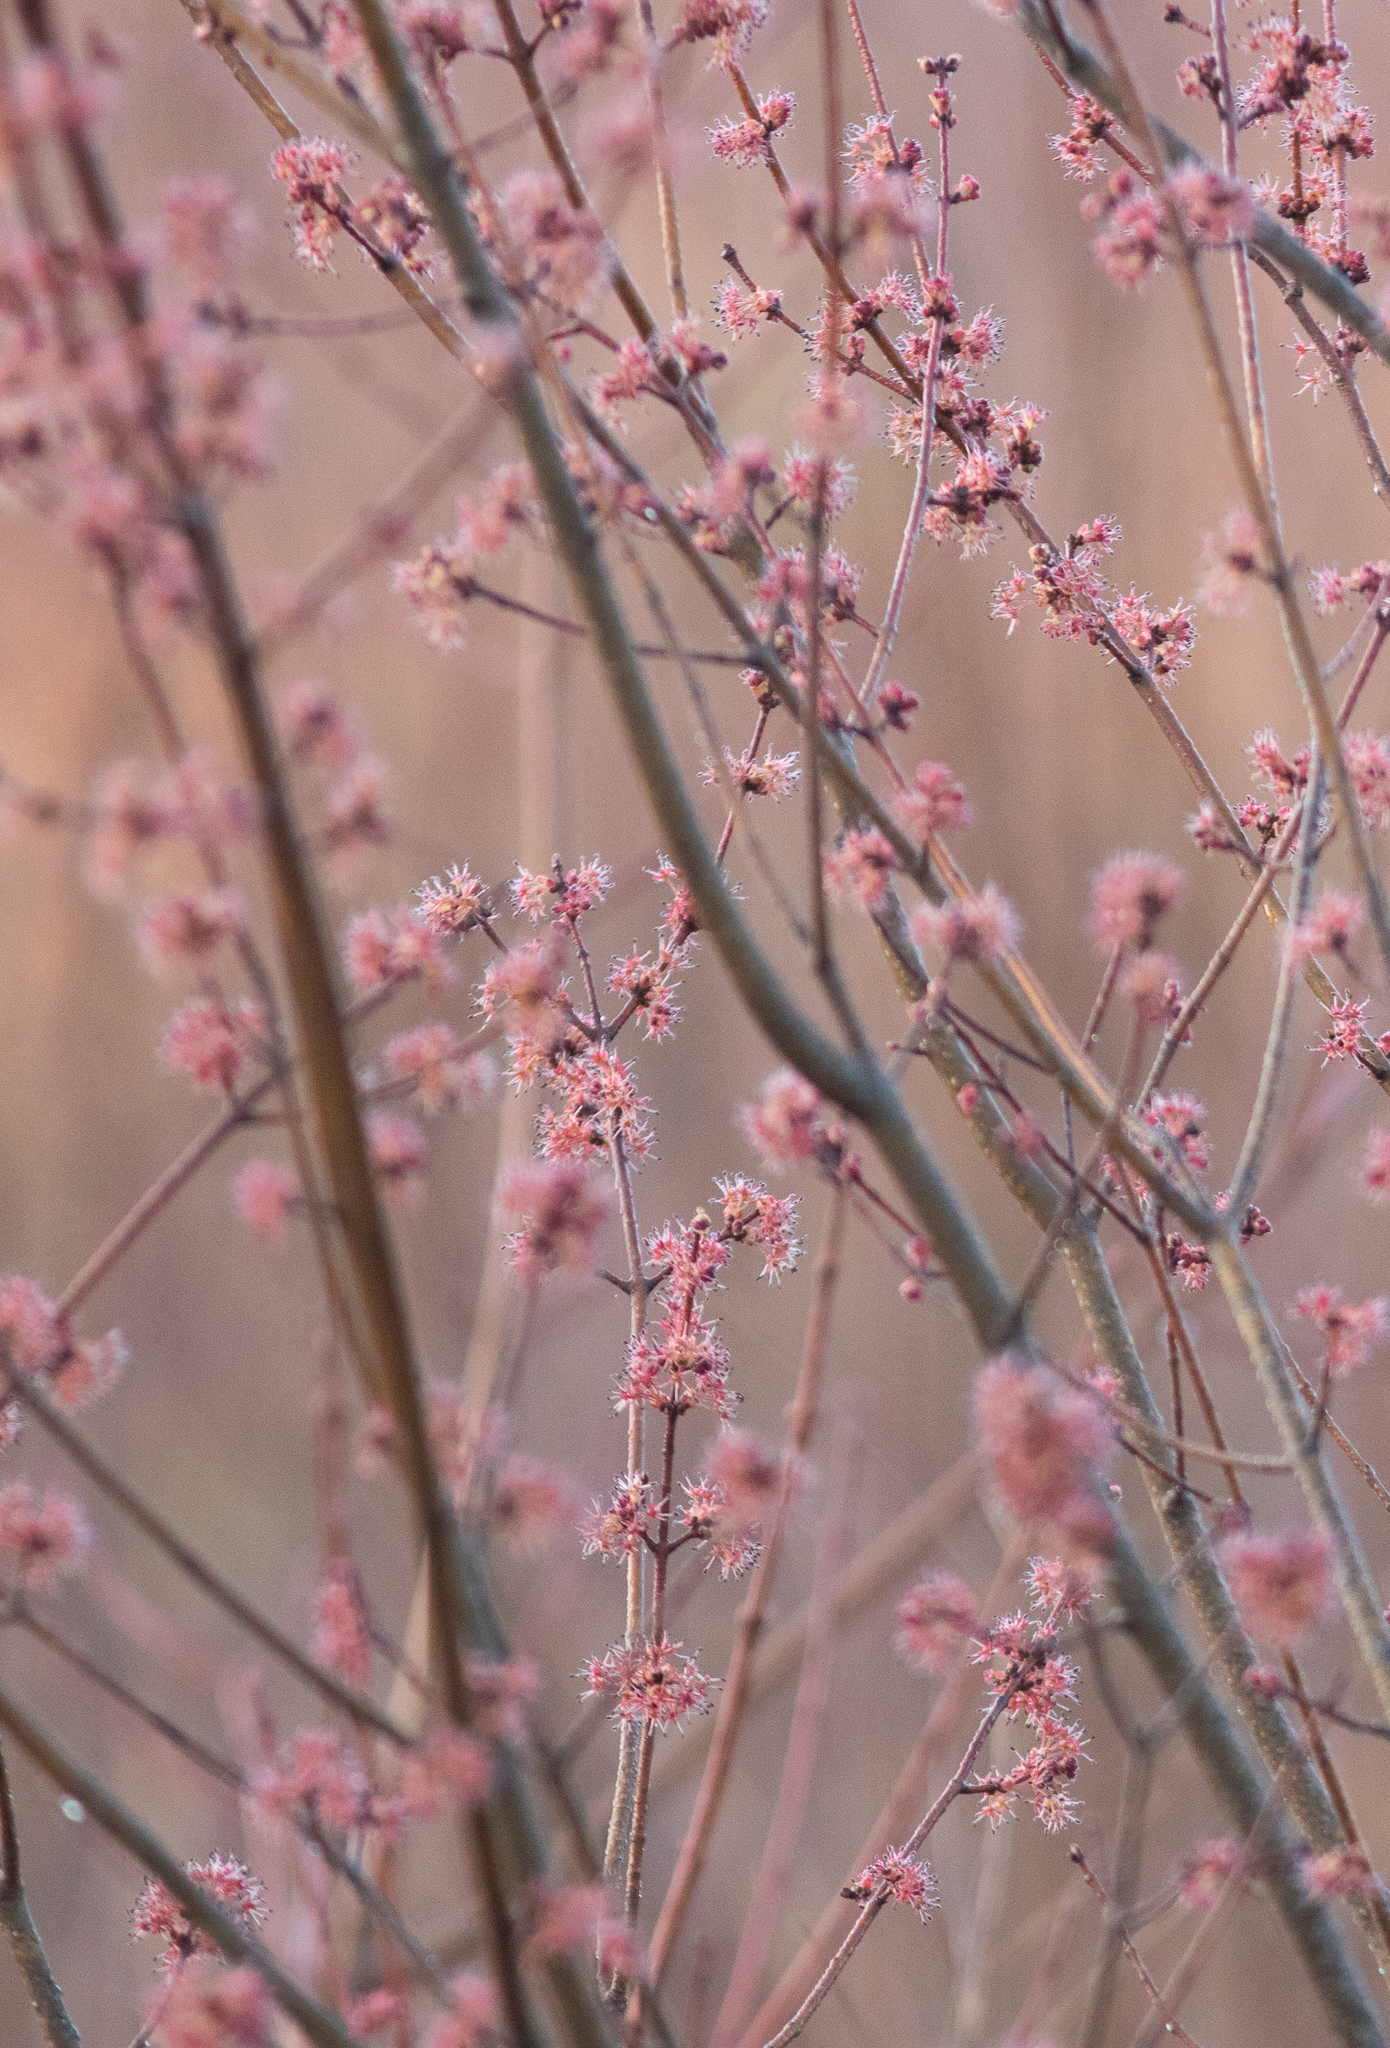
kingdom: Plantae
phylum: Tracheophyta
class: Magnoliopsida
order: Sapindales
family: Sapindaceae
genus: Acer
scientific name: Acer rubrum
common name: Red maple
